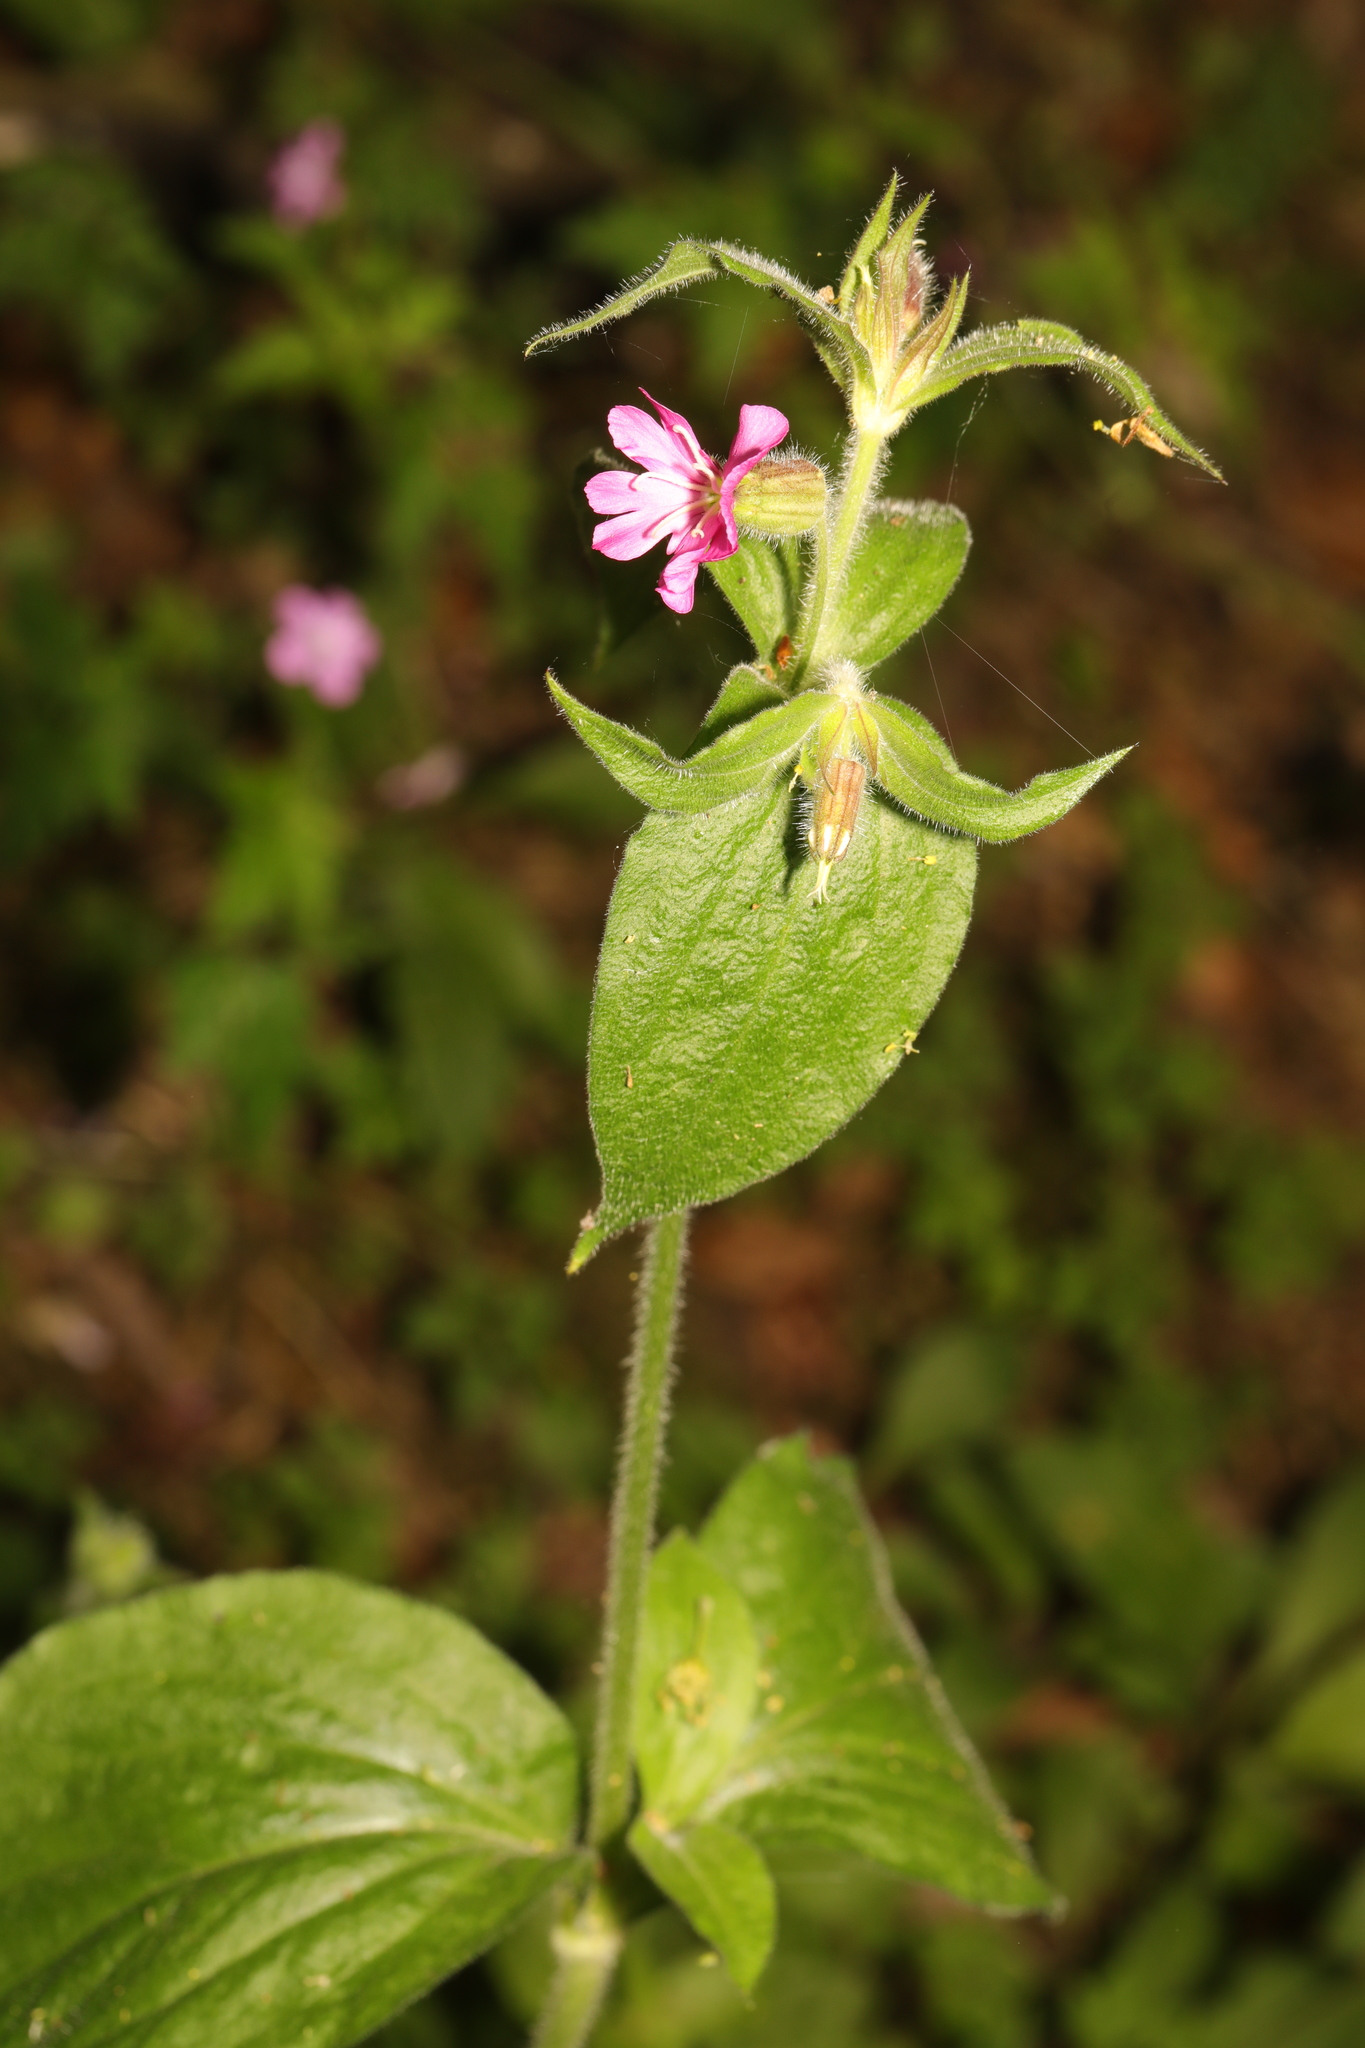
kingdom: Plantae
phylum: Tracheophyta
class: Magnoliopsida
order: Caryophyllales
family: Caryophyllaceae
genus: Silene
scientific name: Silene dioica
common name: Red campion
